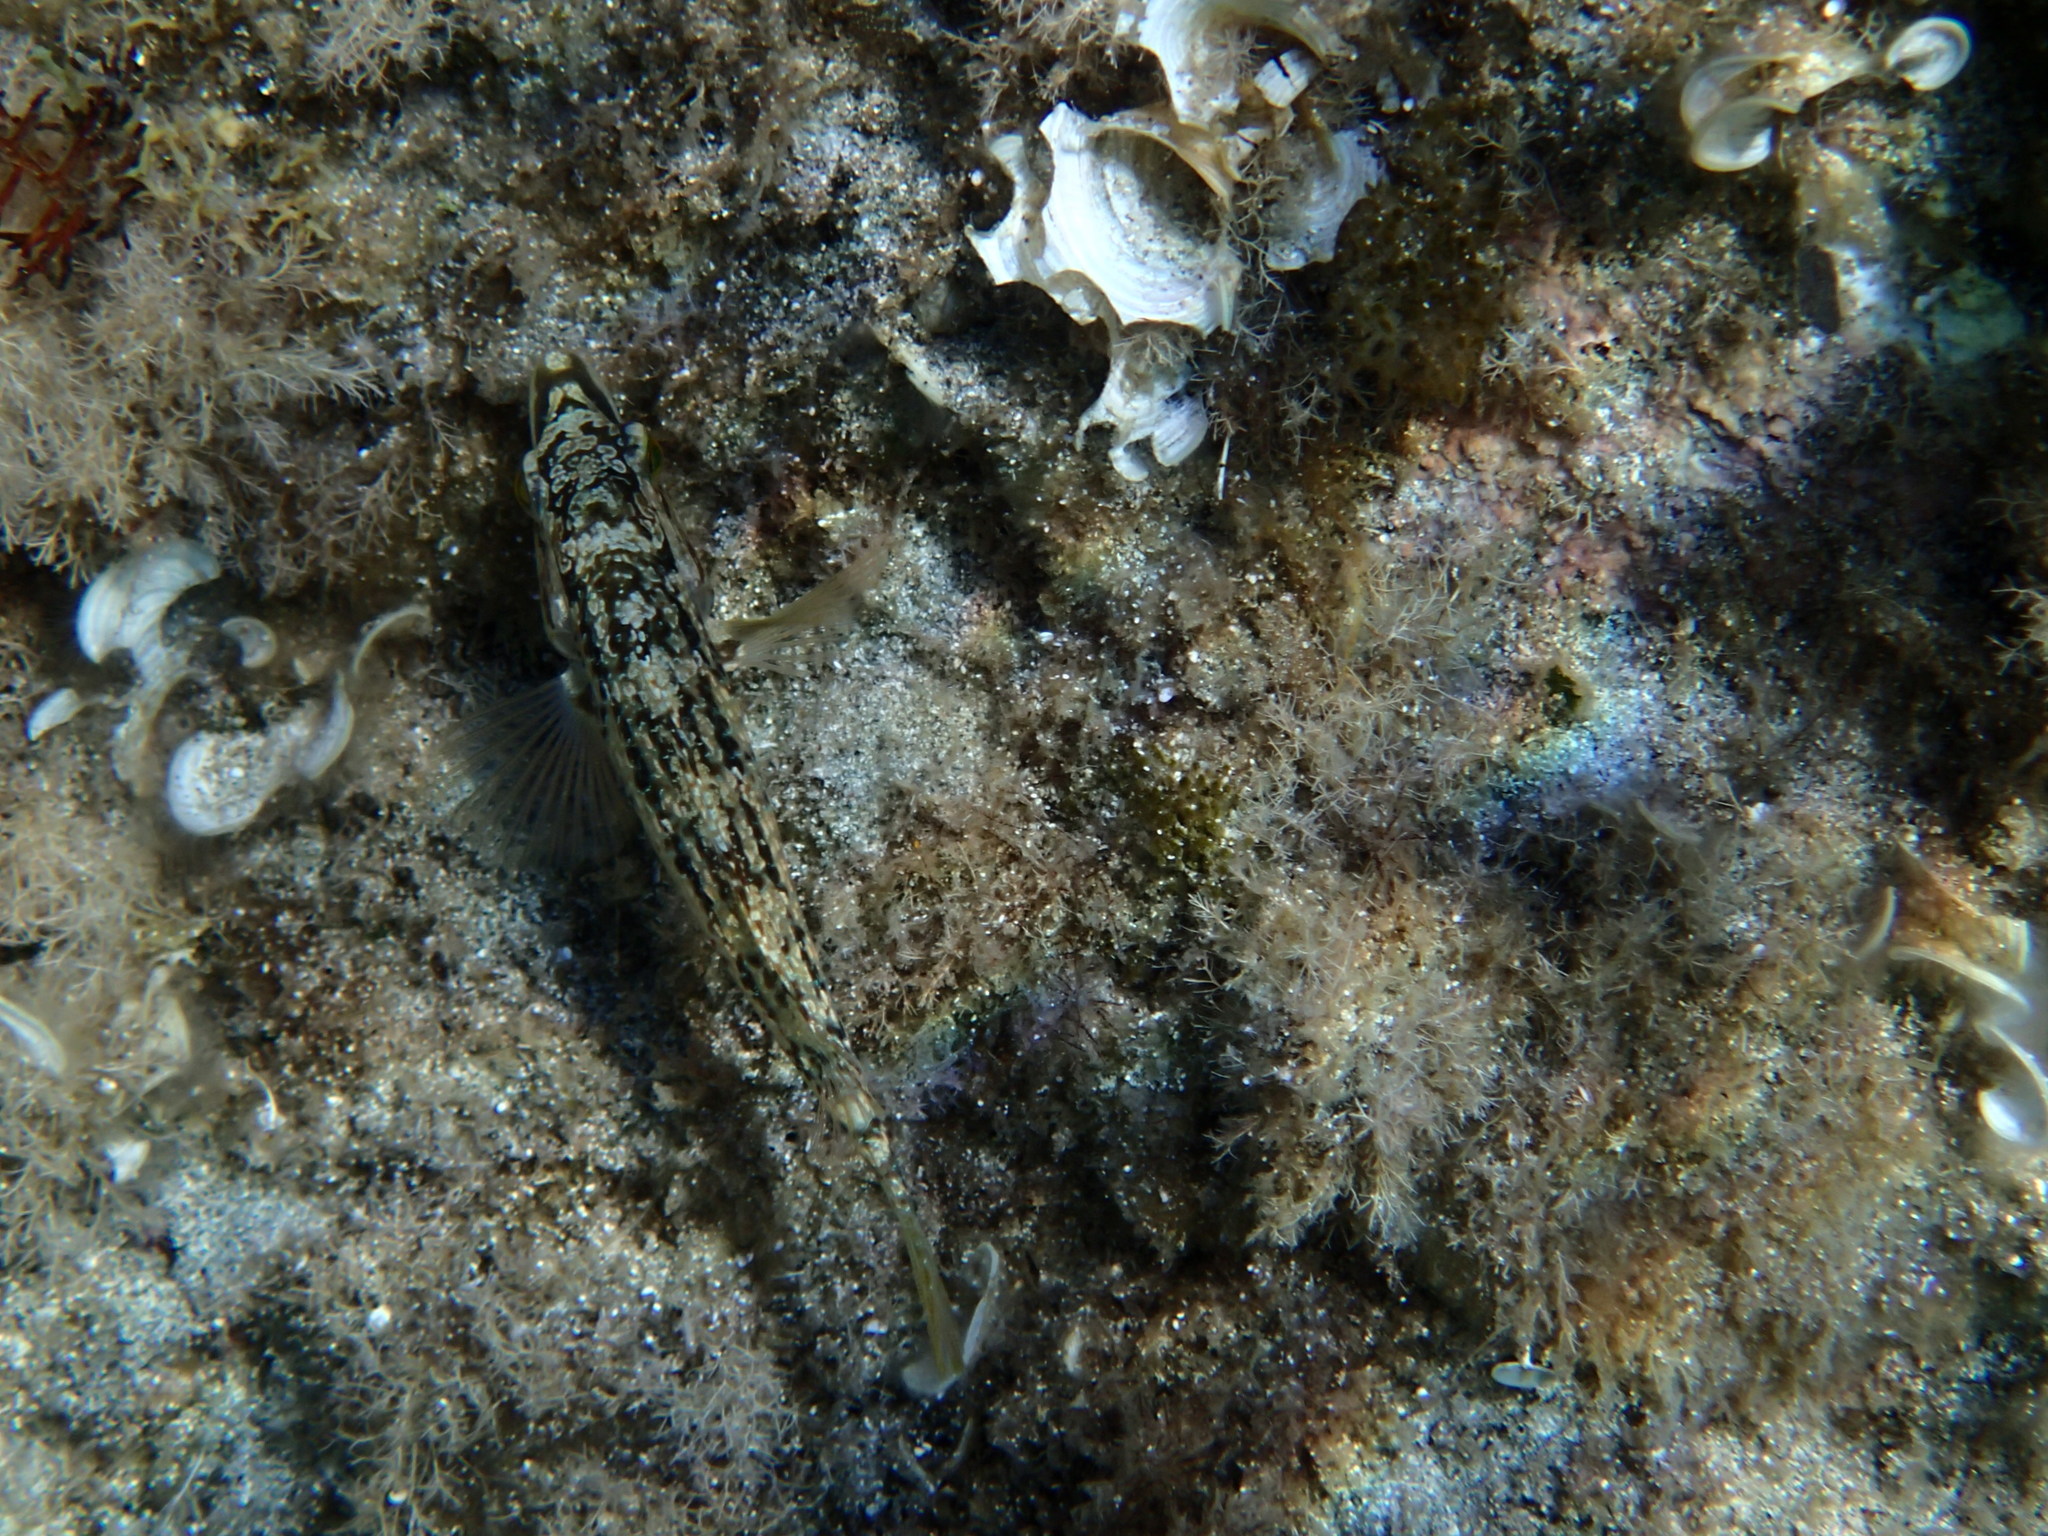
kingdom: Animalia
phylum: Chordata
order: Perciformes
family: Labridae
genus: Symphodus
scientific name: Symphodus roissali
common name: Five-spotted wrasse
